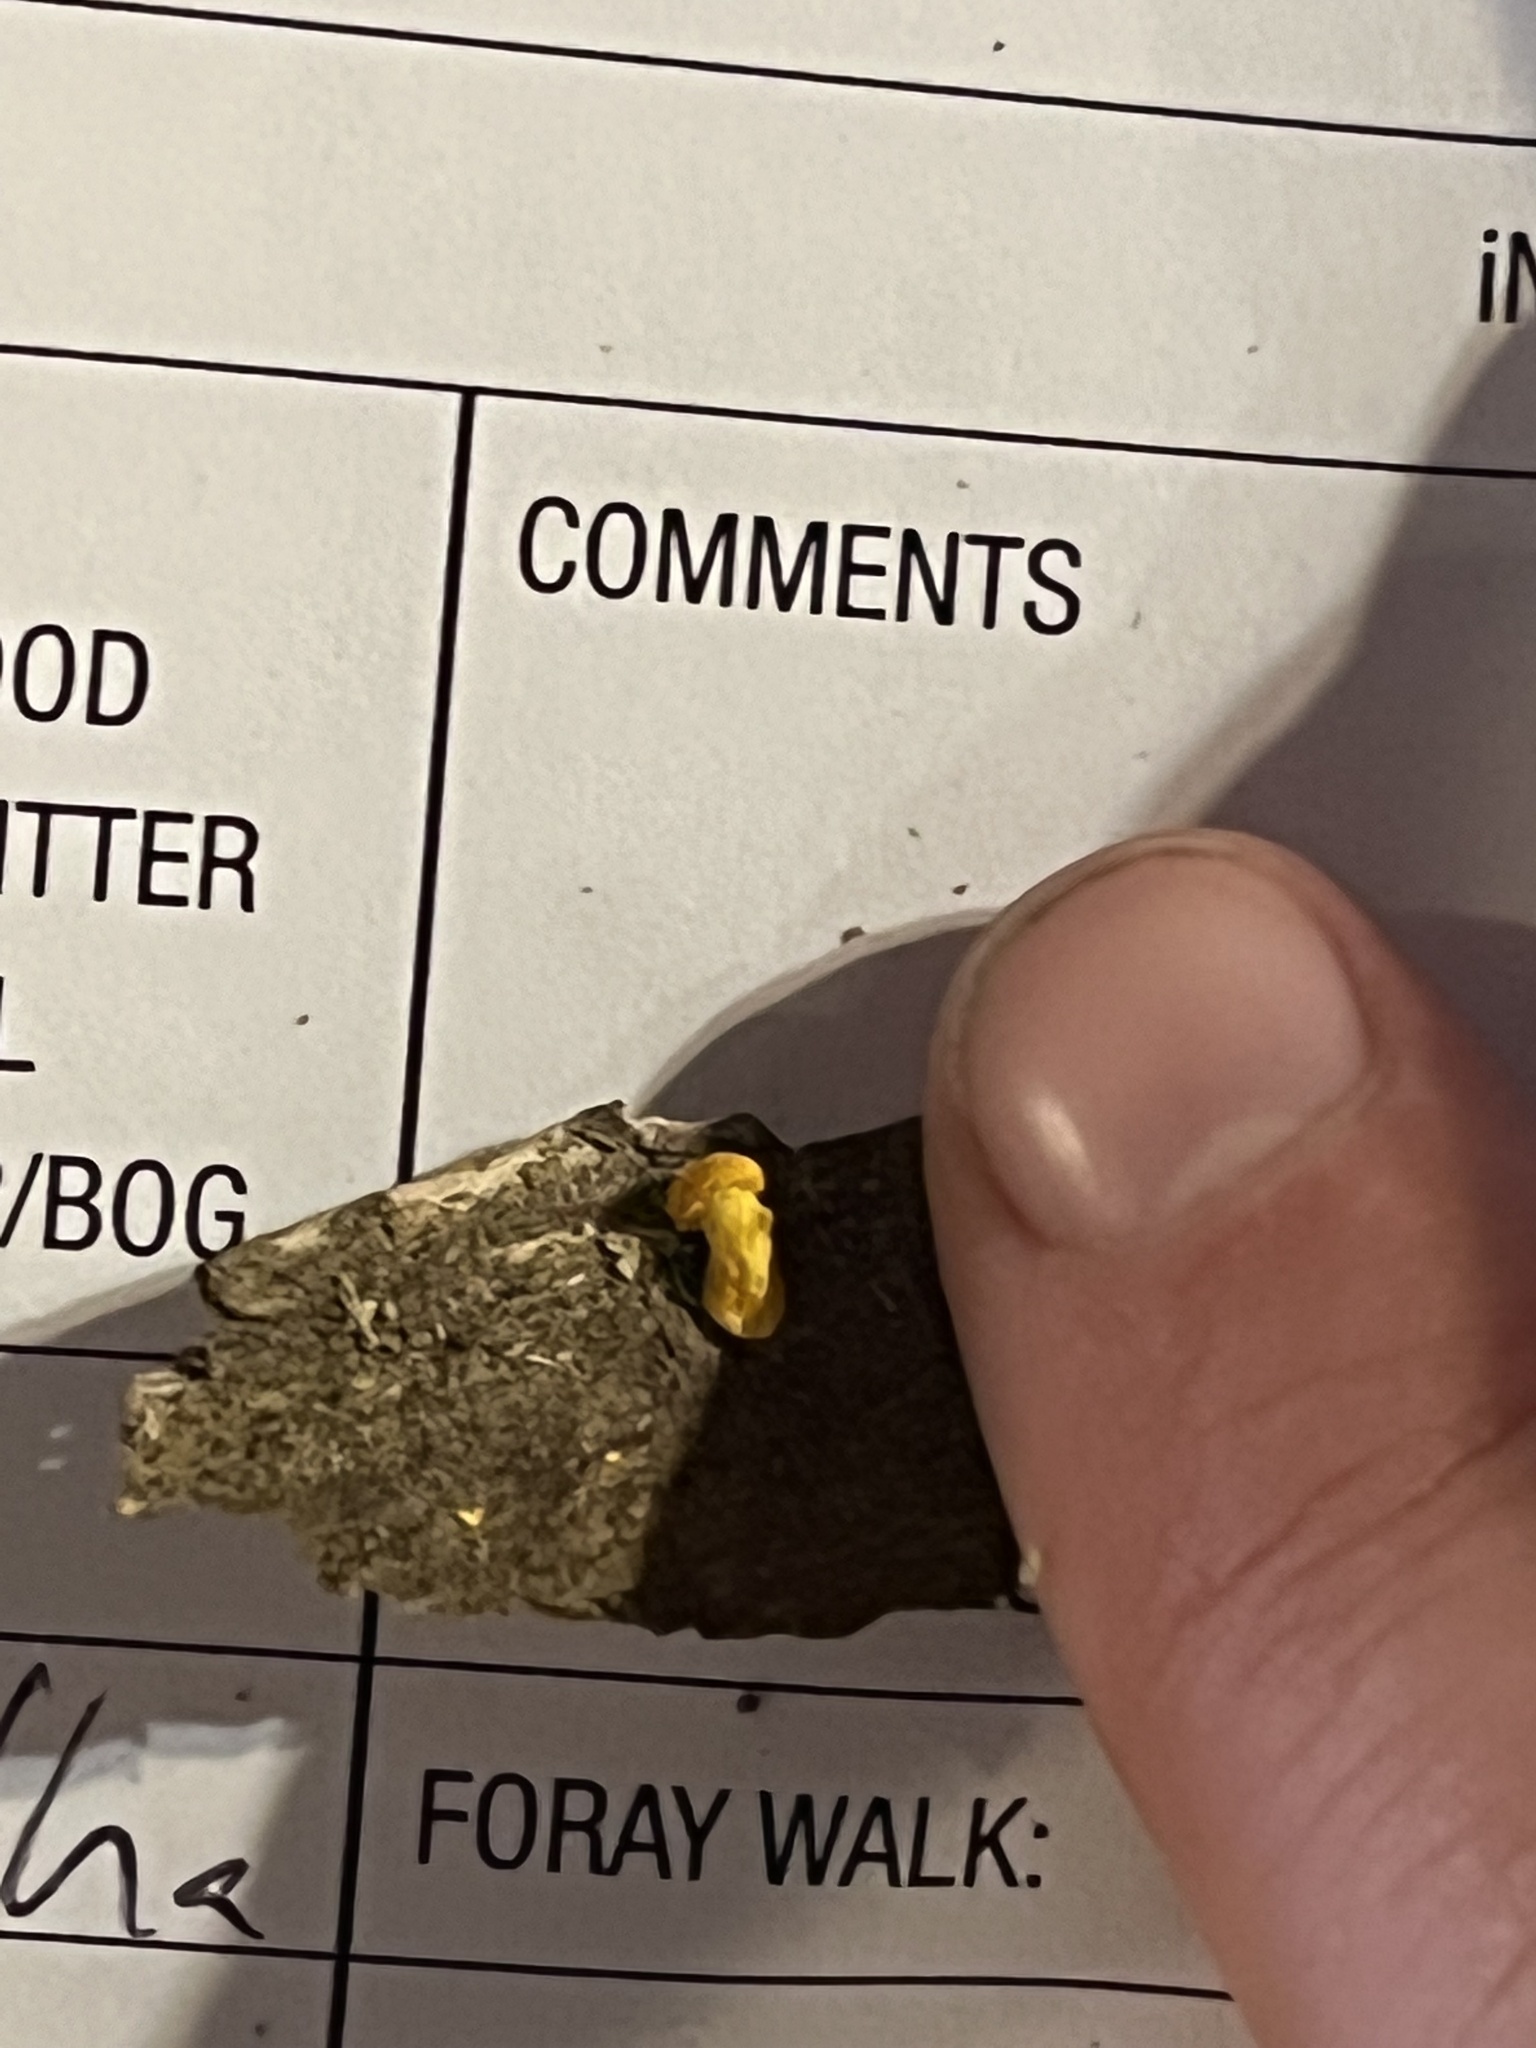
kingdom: Fungi
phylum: Basidiomycota
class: Agaricomycetes
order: Agaricales
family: Physalacriaceae
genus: Cyptotrama
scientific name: Cyptotrama chrysopepla
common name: Golden coincap
